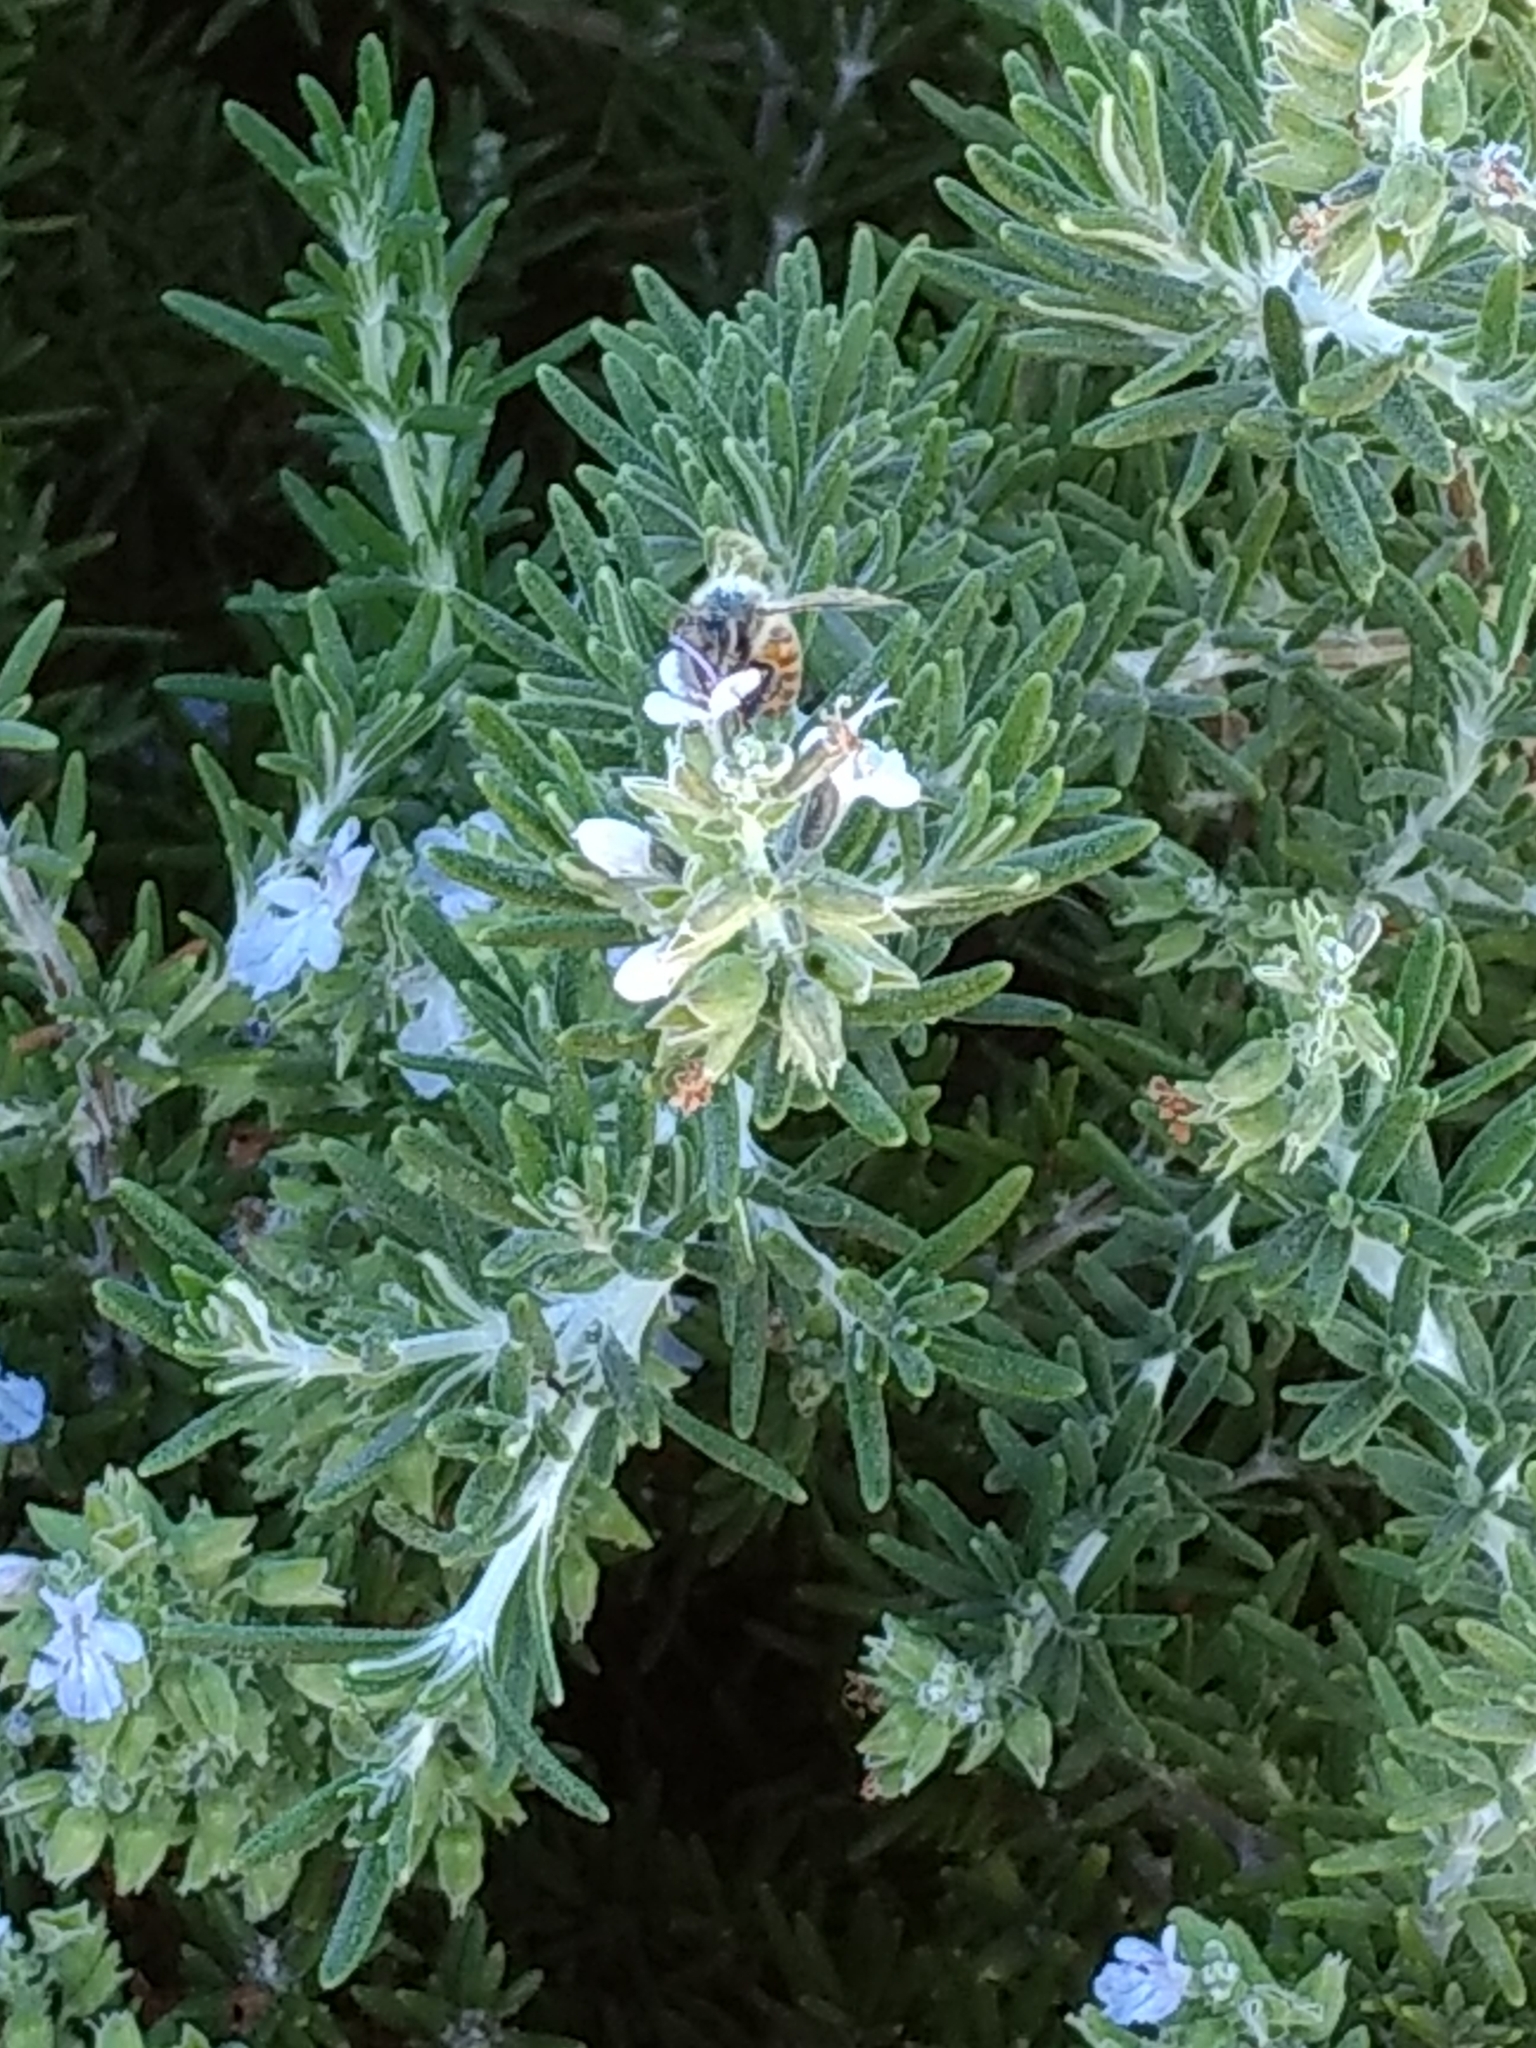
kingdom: Animalia
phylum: Arthropoda
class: Insecta
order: Hymenoptera
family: Apidae
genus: Apis
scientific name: Apis mellifera
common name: Honey bee
